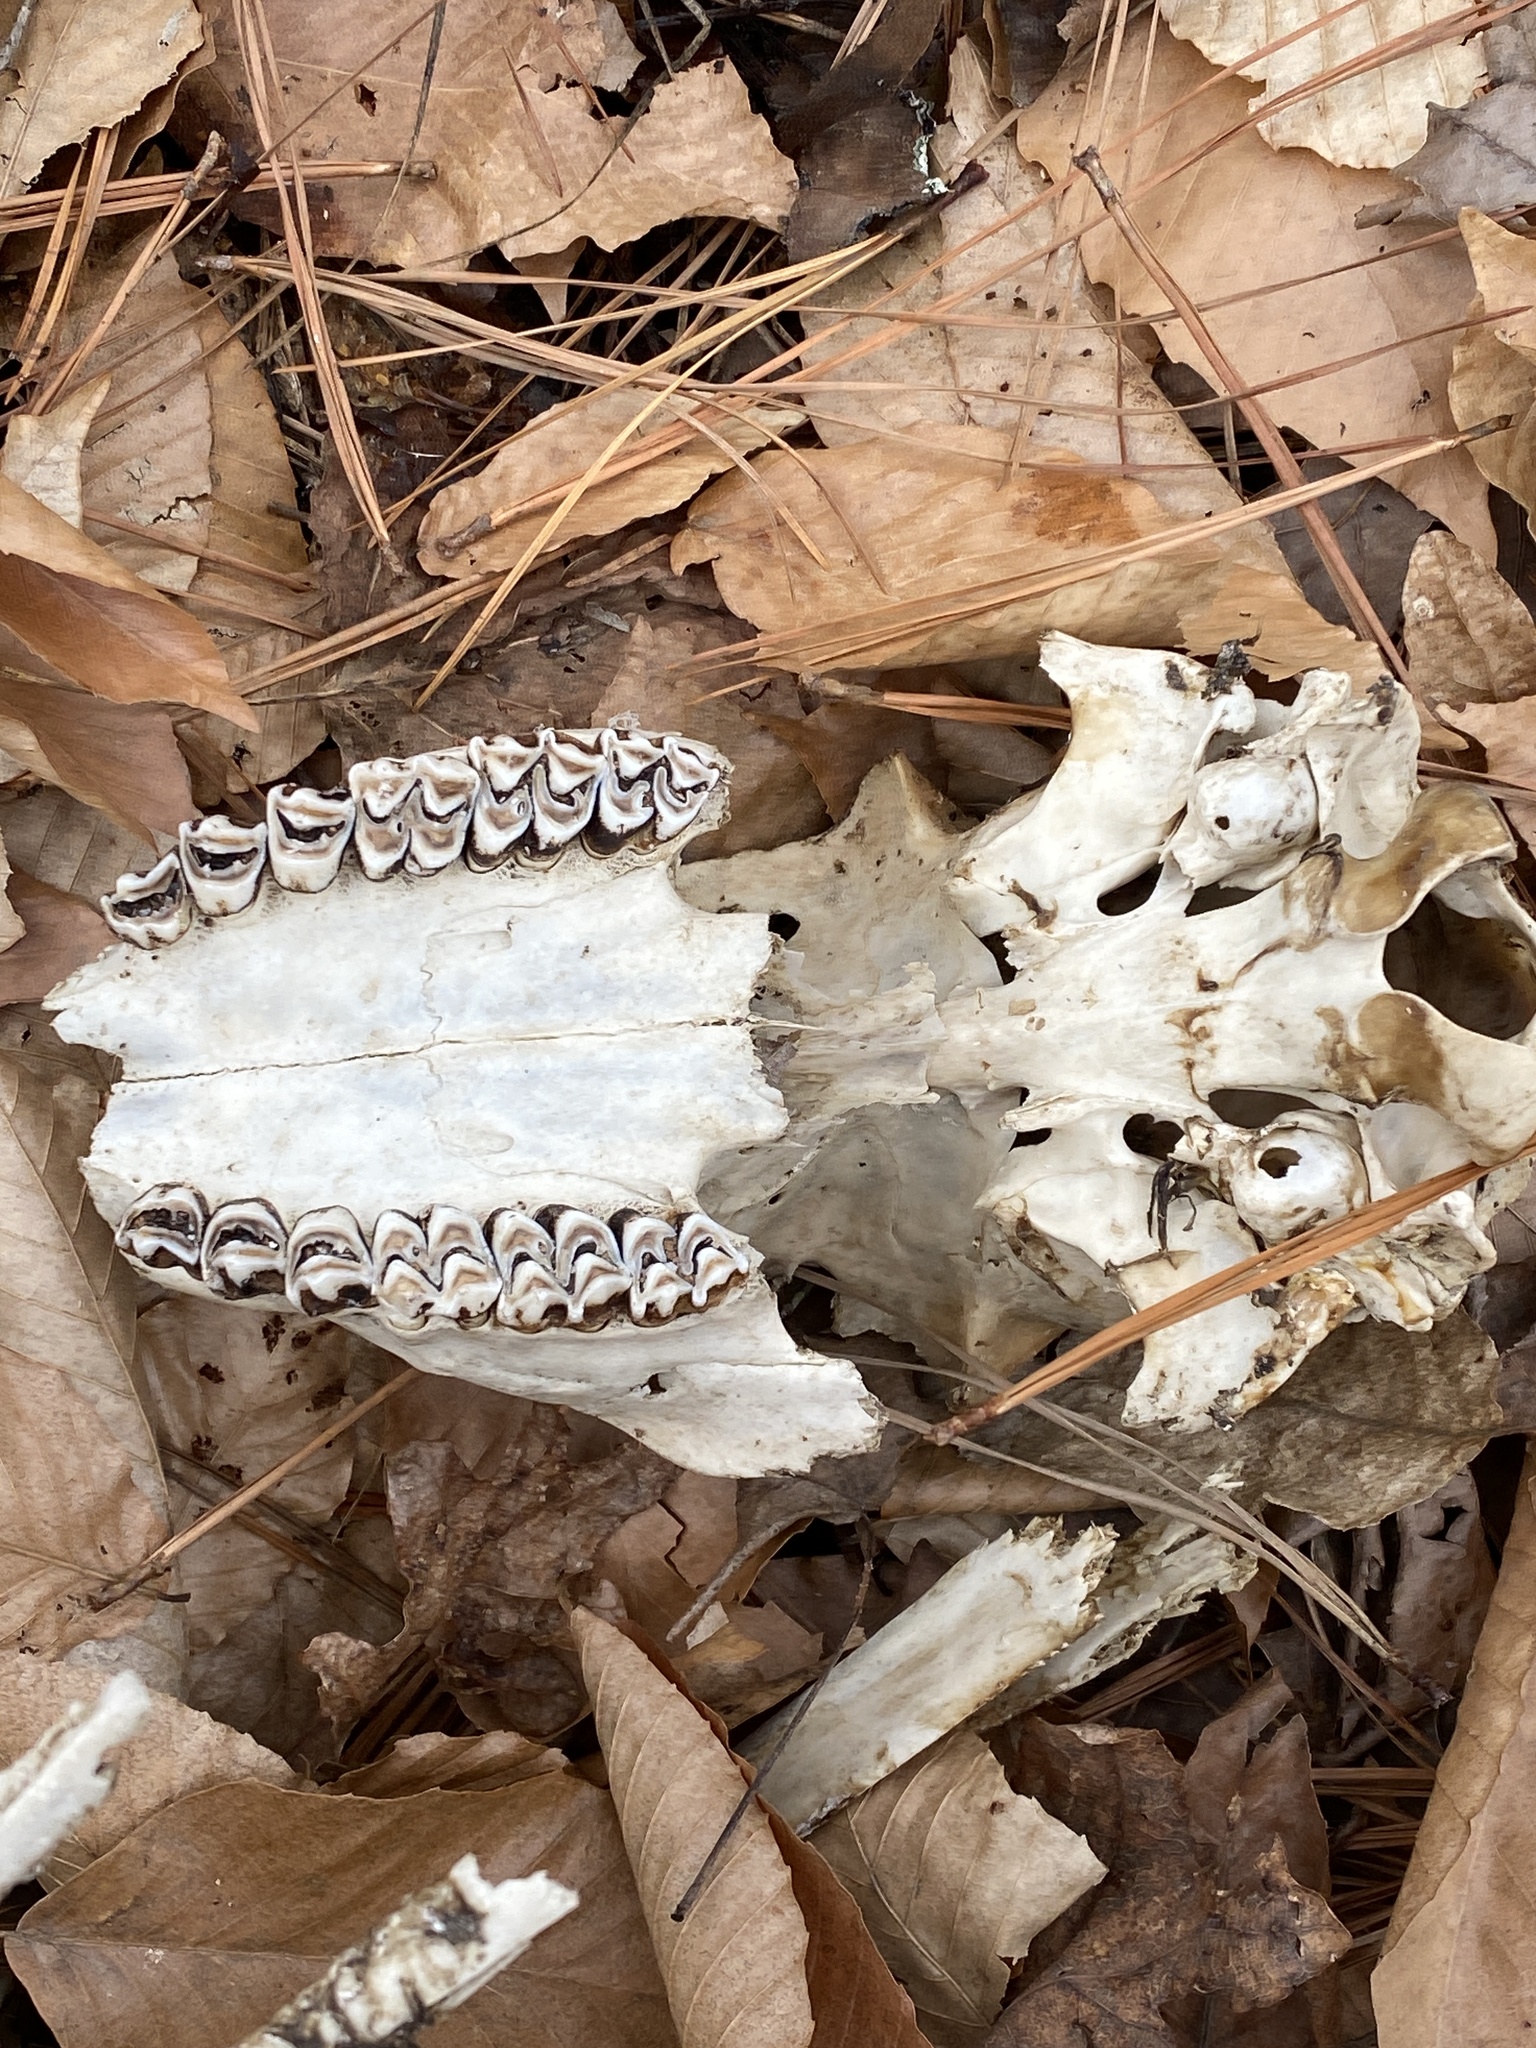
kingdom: Animalia
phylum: Chordata
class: Mammalia
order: Artiodactyla
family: Cervidae
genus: Odocoileus
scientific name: Odocoileus virginianus
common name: White-tailed deer
